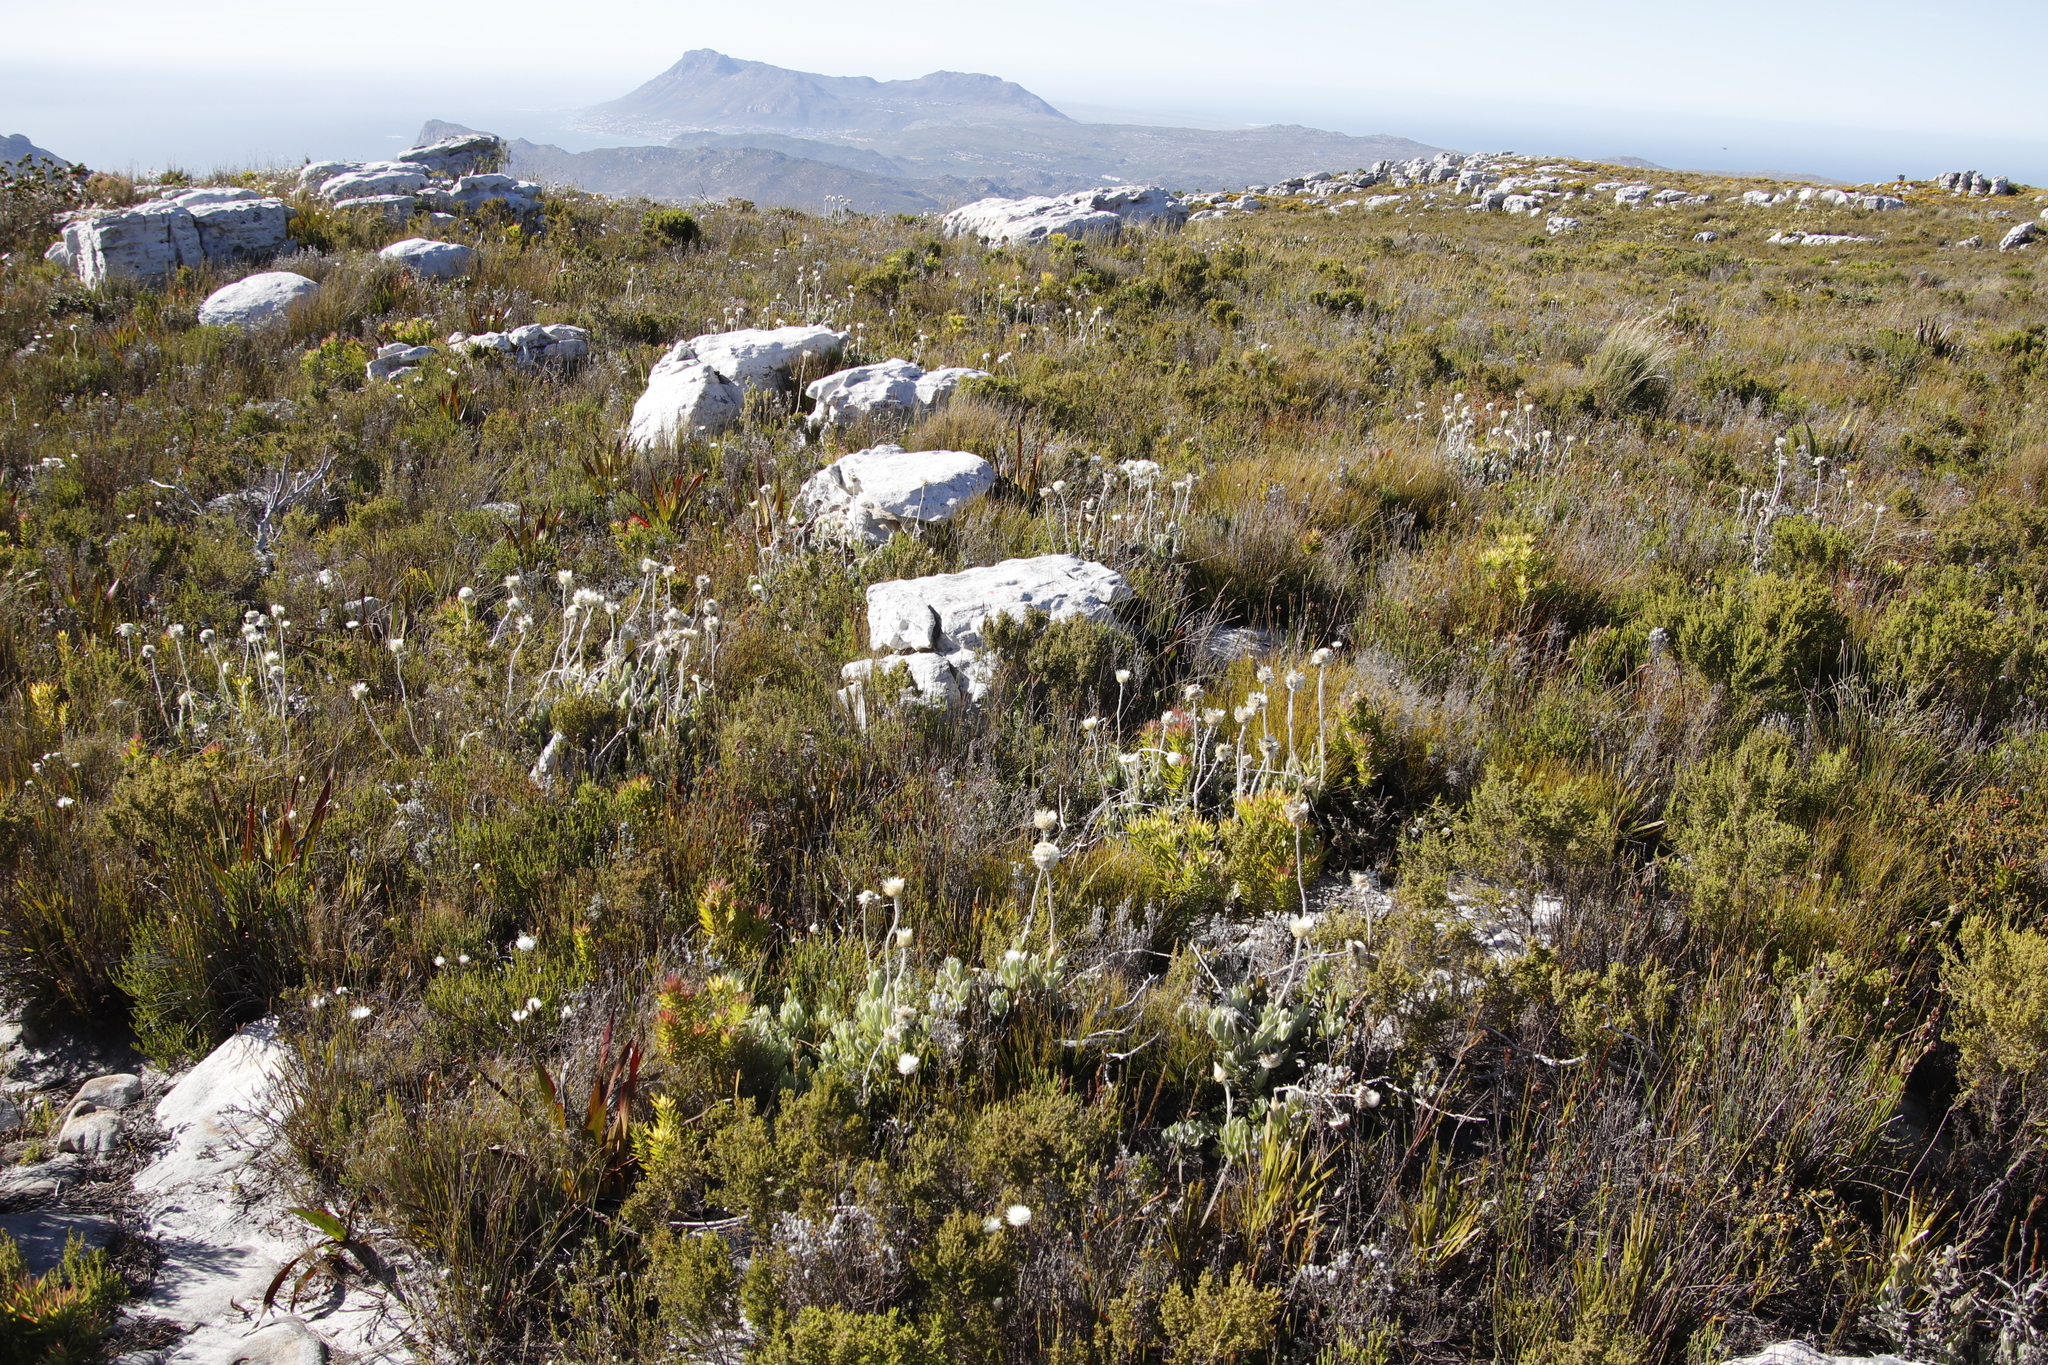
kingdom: Plantae
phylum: Tracheophyta
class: Magnoliopsida
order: Asterales
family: Asteraceae
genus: Syncarpha
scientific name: Syncarpha speciosissima
